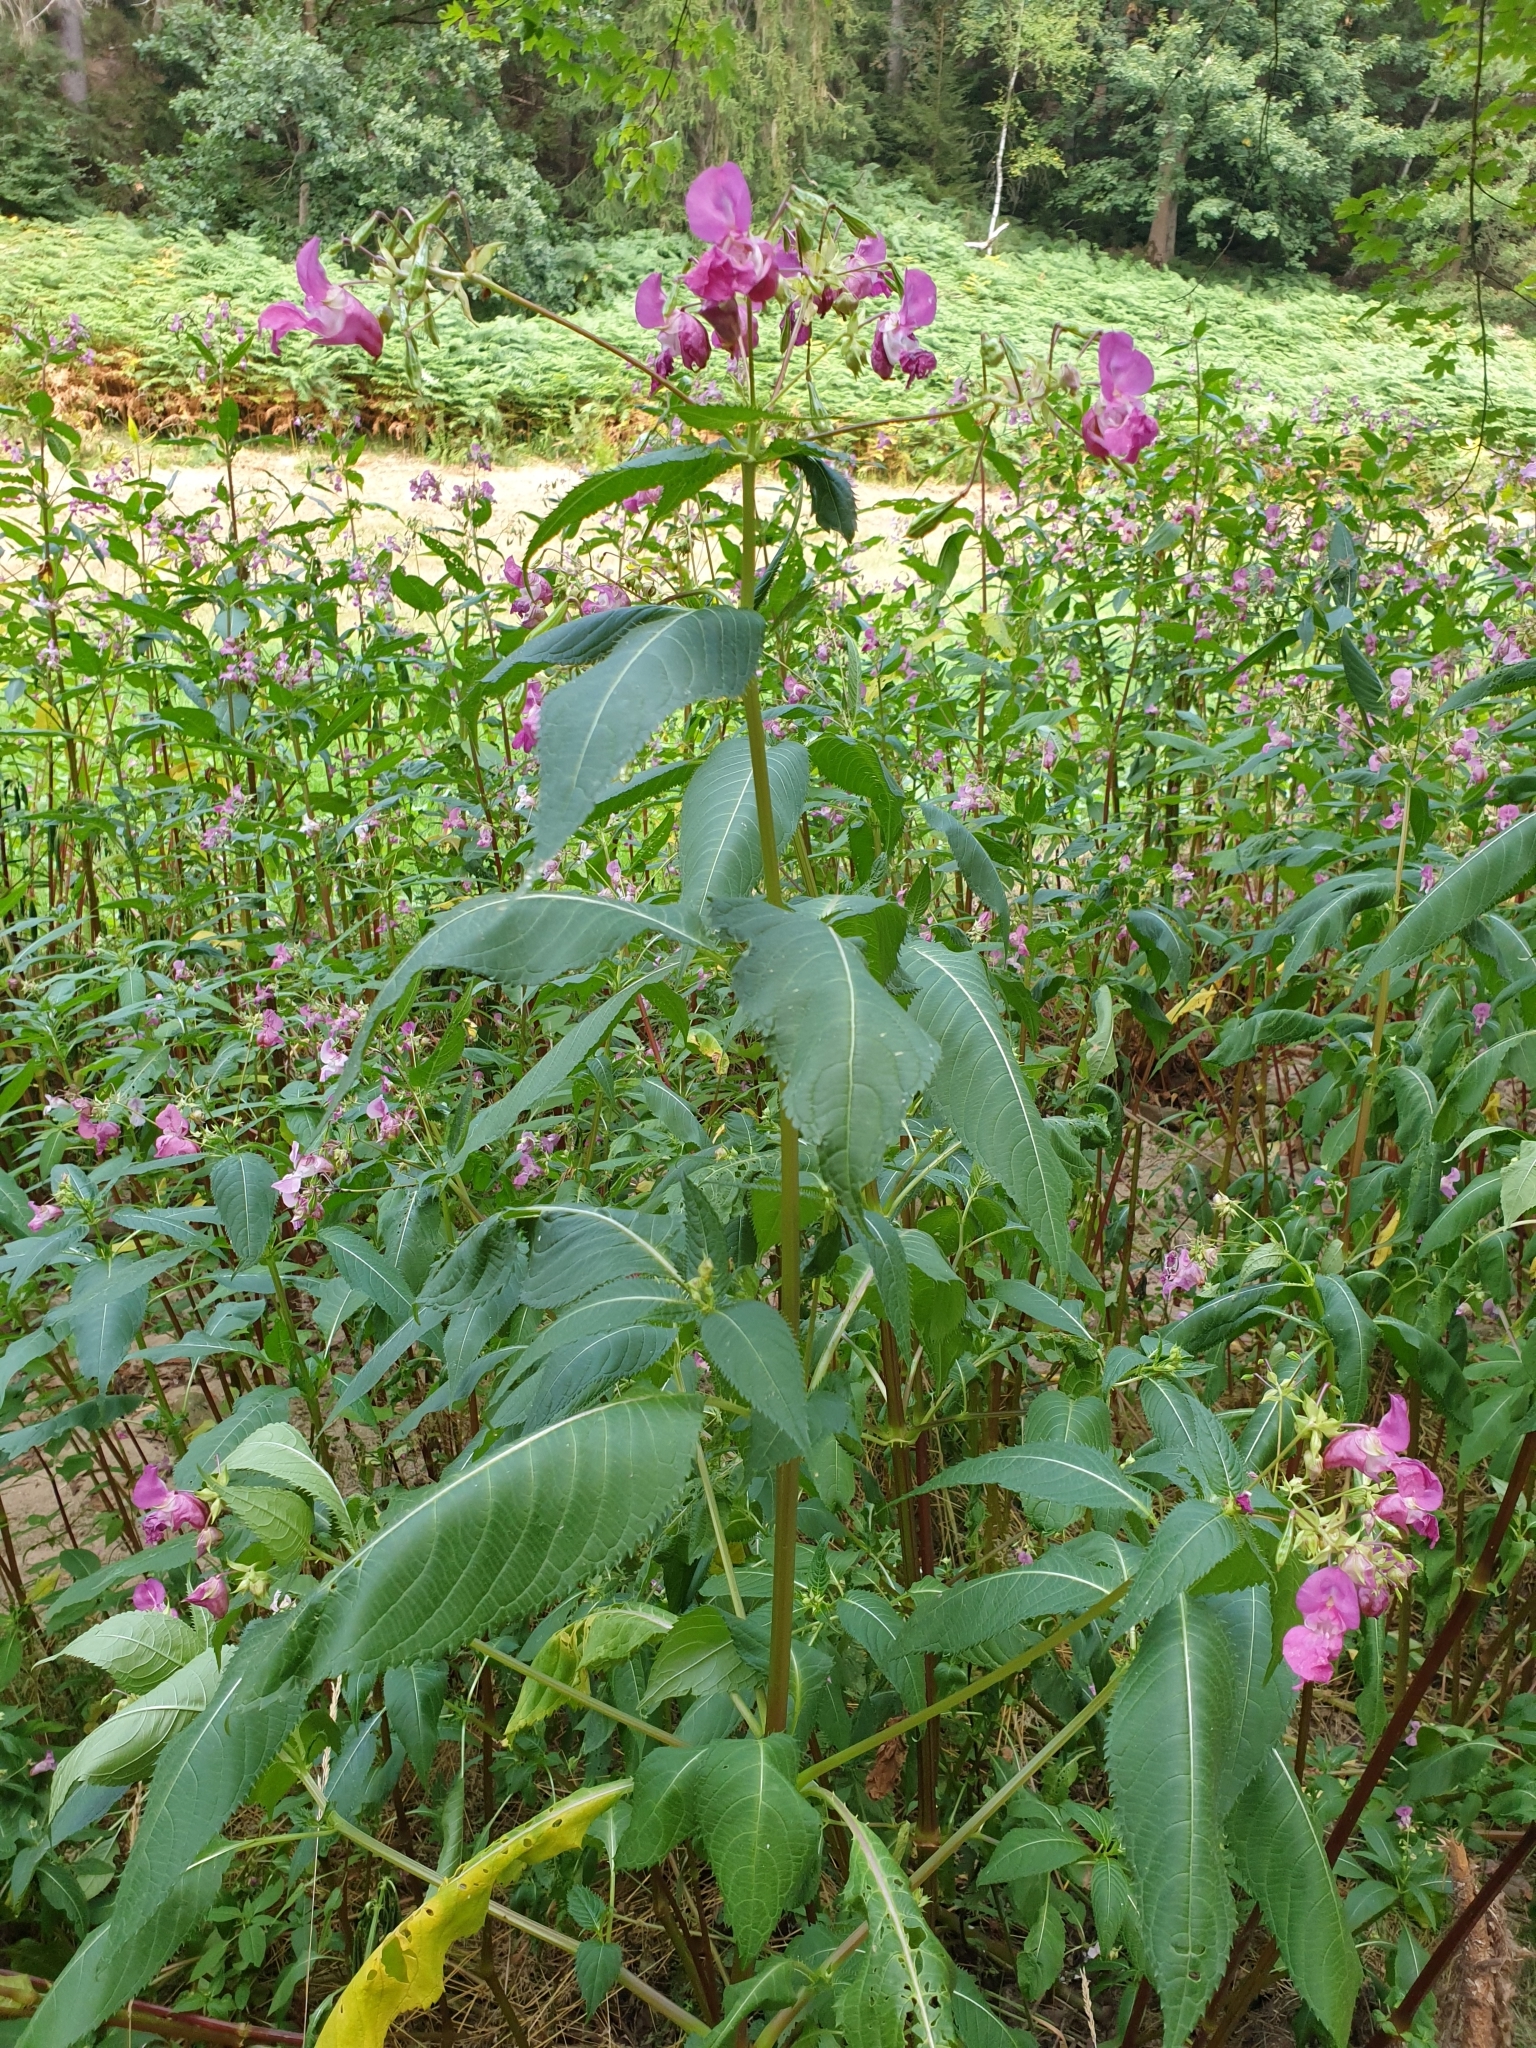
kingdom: Plantae
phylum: Tracheophyta
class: Magnoliopsida
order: Ericales
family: Balsaminaceae
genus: Impatiens
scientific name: Impatiens glandulifera
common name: Himalayan balsam
